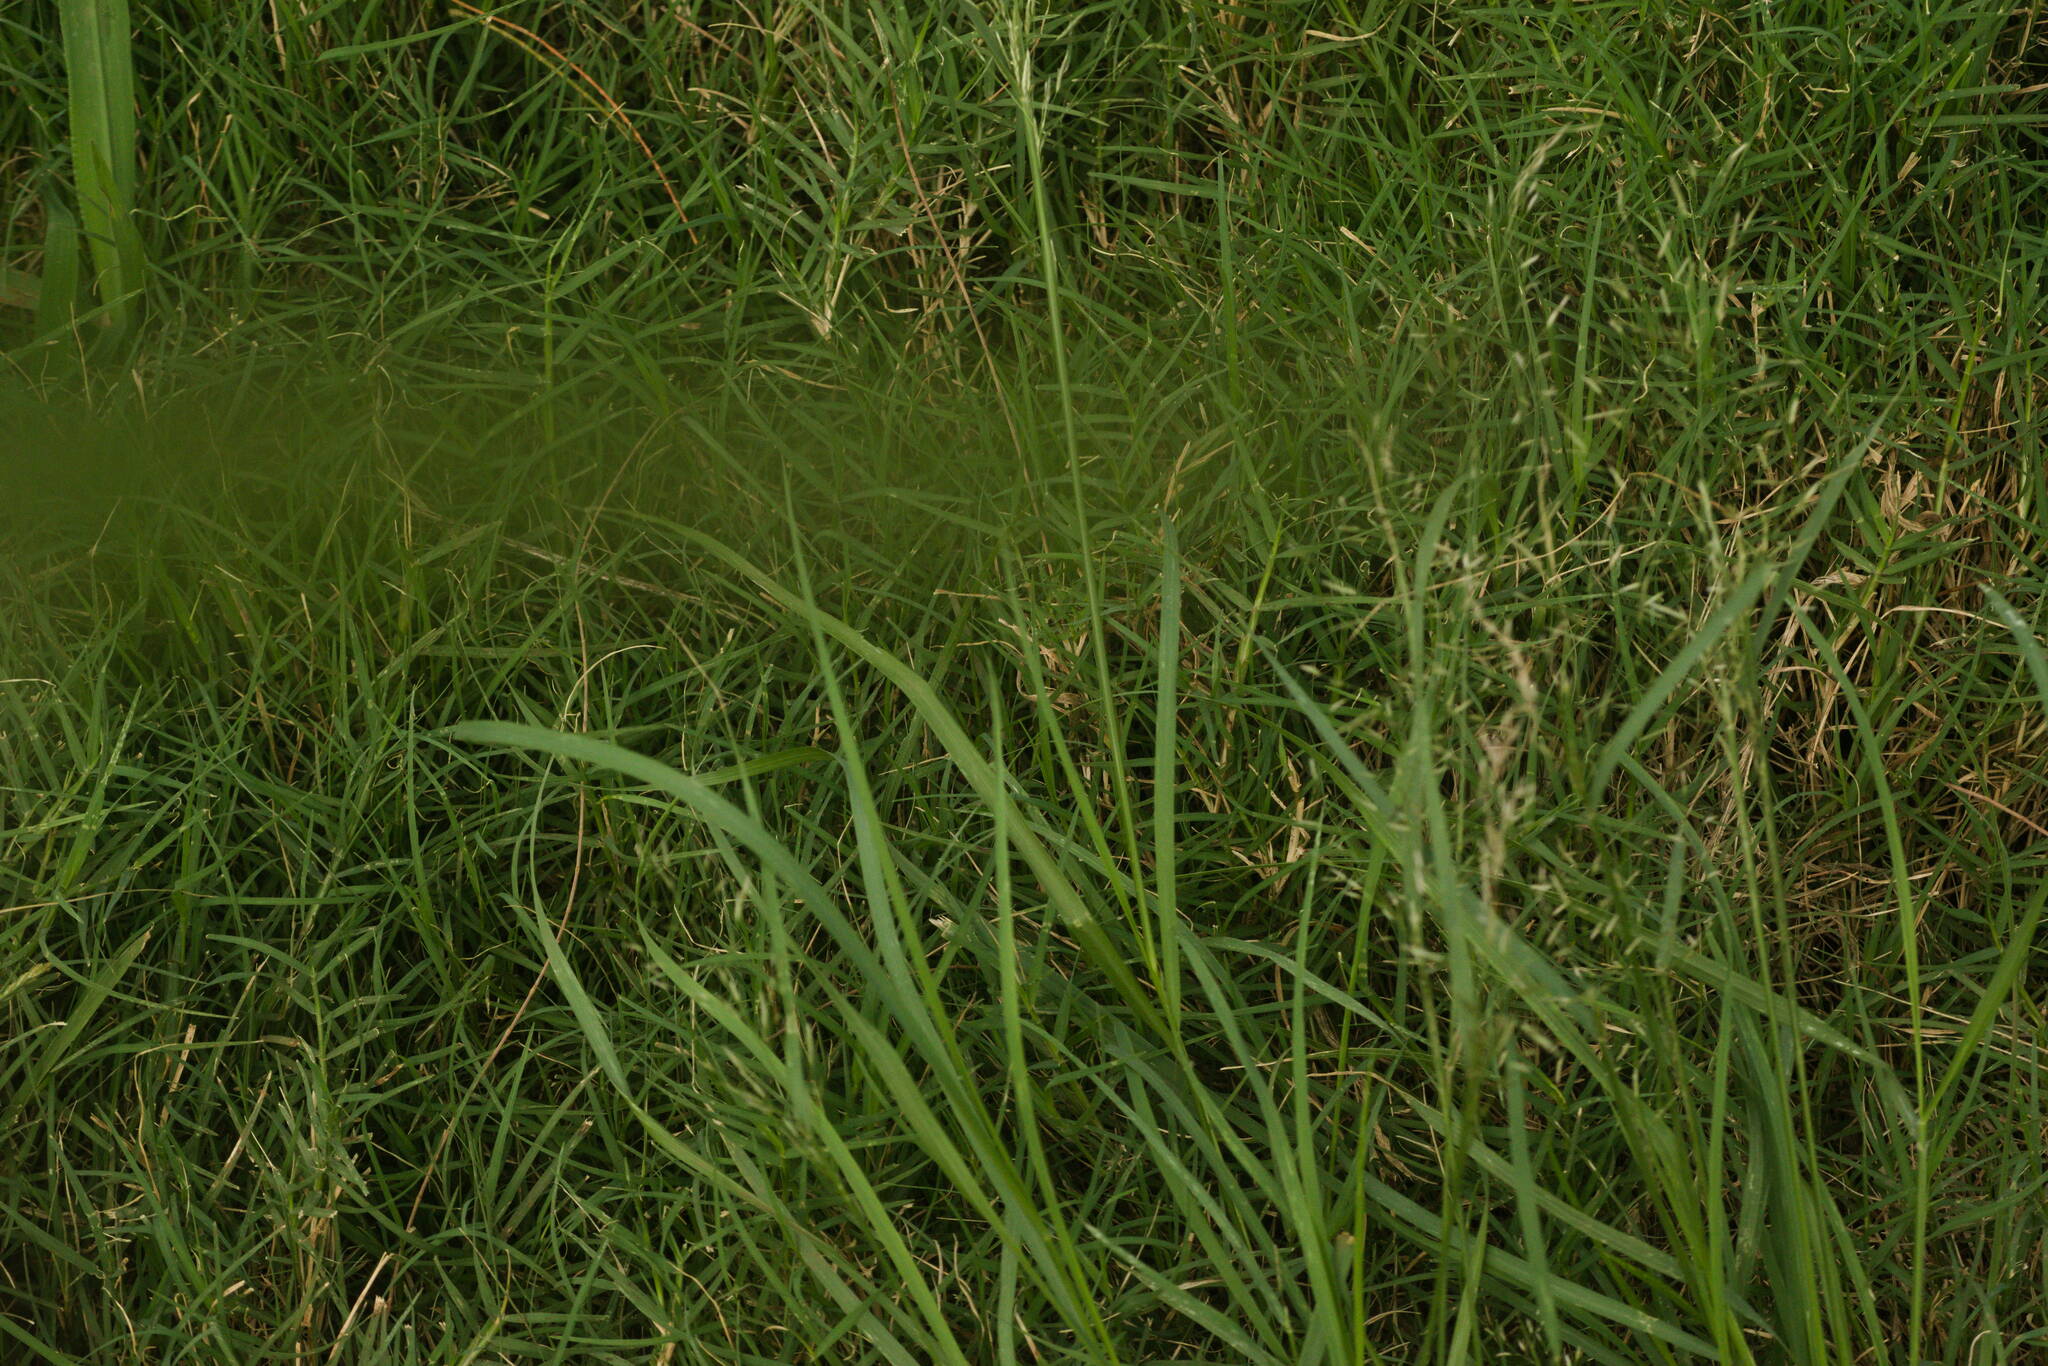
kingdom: Plantae
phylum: Tracheophyta
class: Liliopsida
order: Poales
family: Poaceae
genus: Eragrostis
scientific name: Eragrostis tenuifolia
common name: Elastic grass
